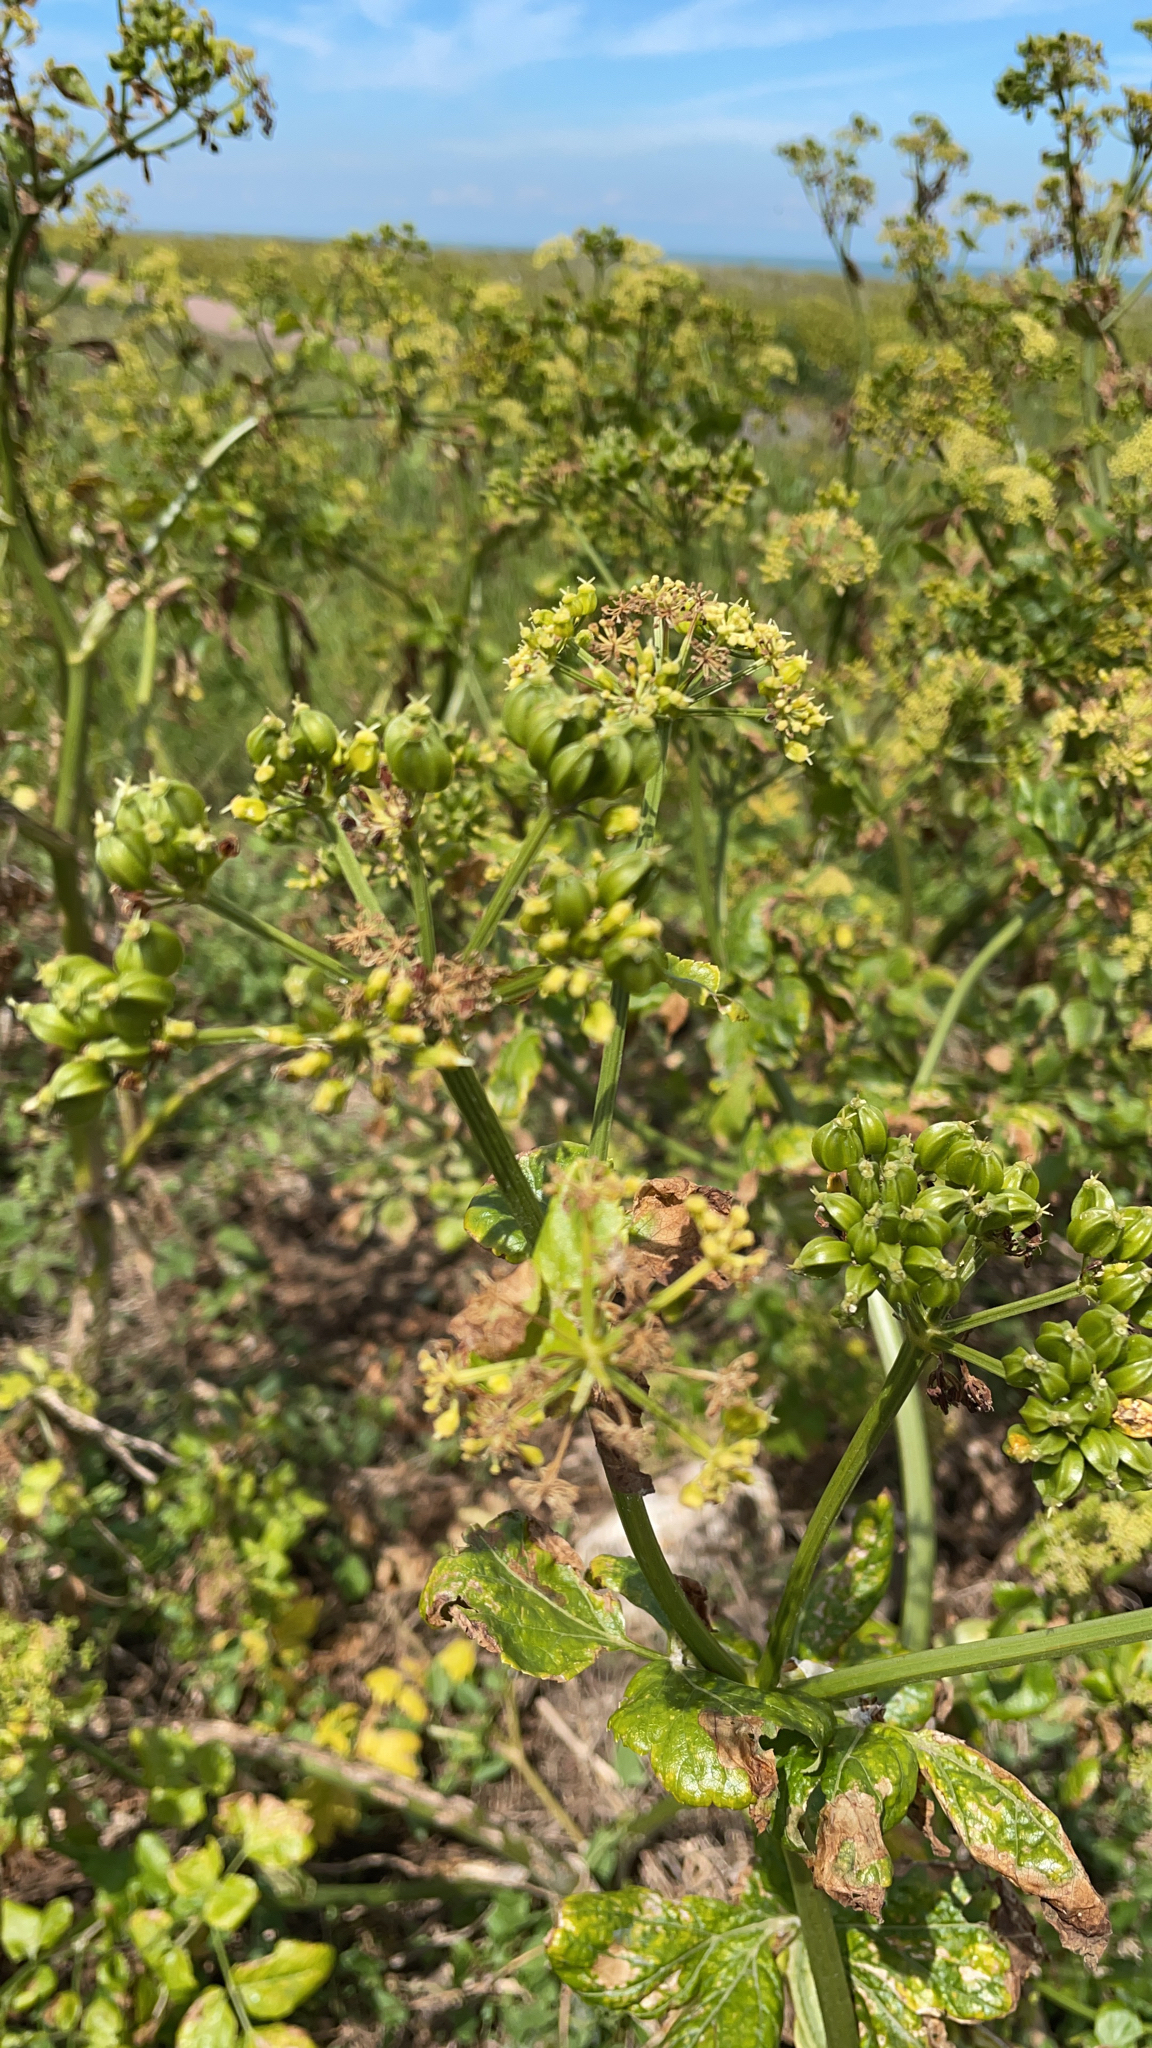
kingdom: Plantae
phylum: Tracheophyta
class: Magnoliopsida
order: Apiales
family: Apiaceae
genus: Smyrnium
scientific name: Smyrnium olusatrum
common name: Alexanders
